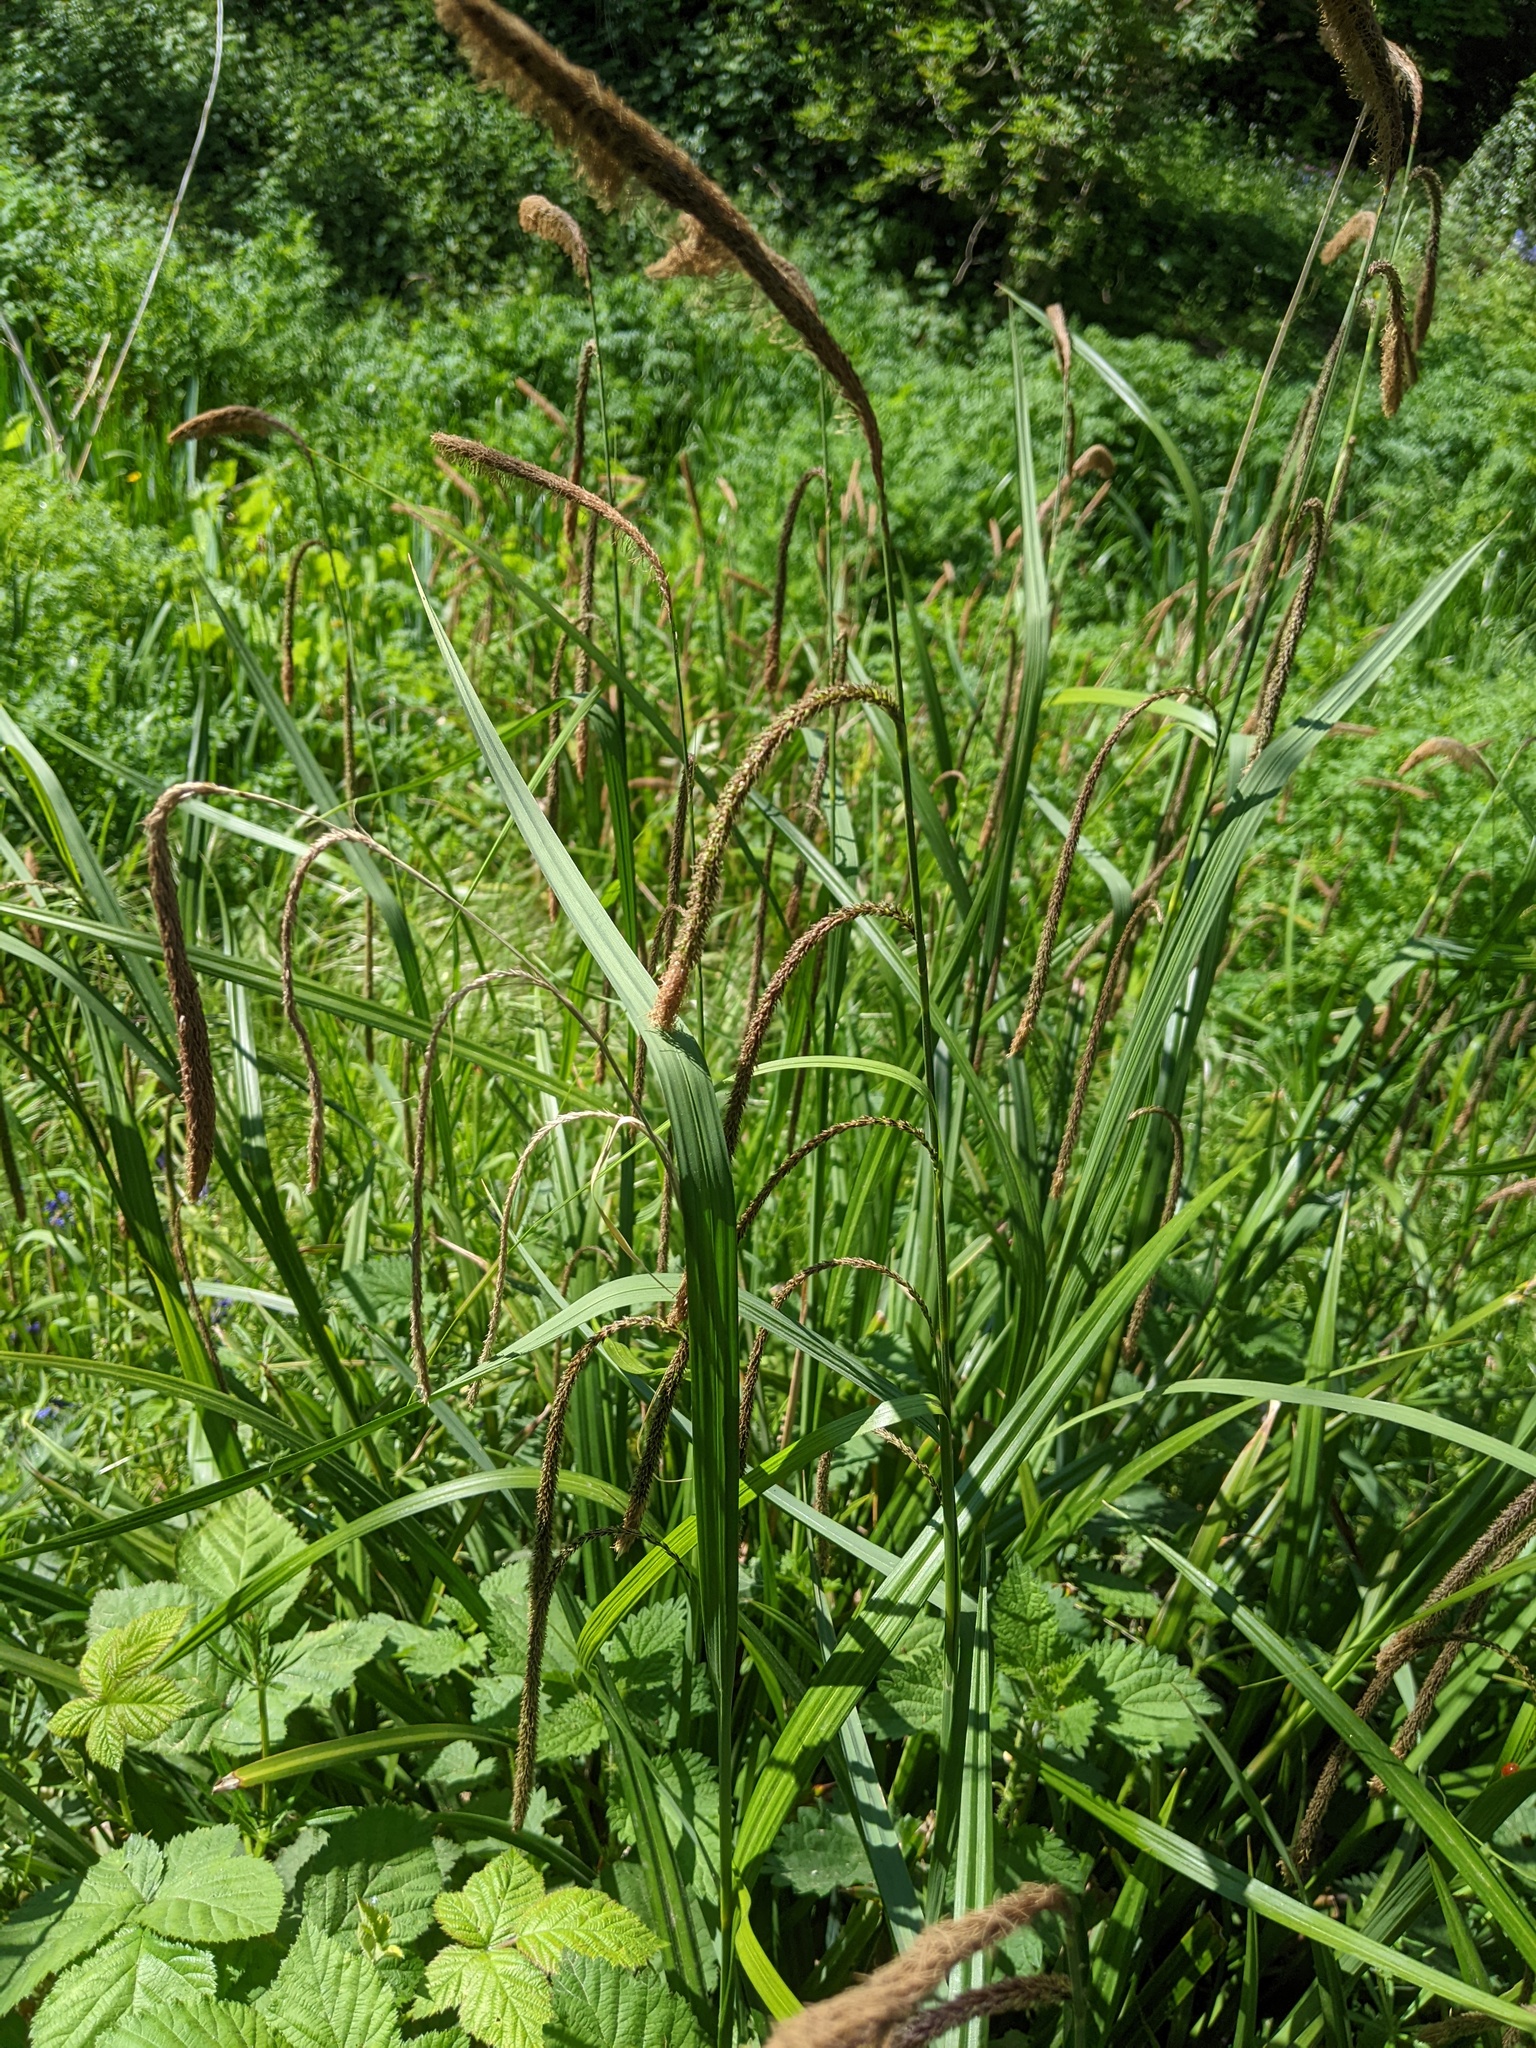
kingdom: Plantae
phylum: Tracheophyta
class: Liliopsida
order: Poales
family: Cyperaceae
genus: Carex
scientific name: Carex pendula
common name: Pendulous sedge
